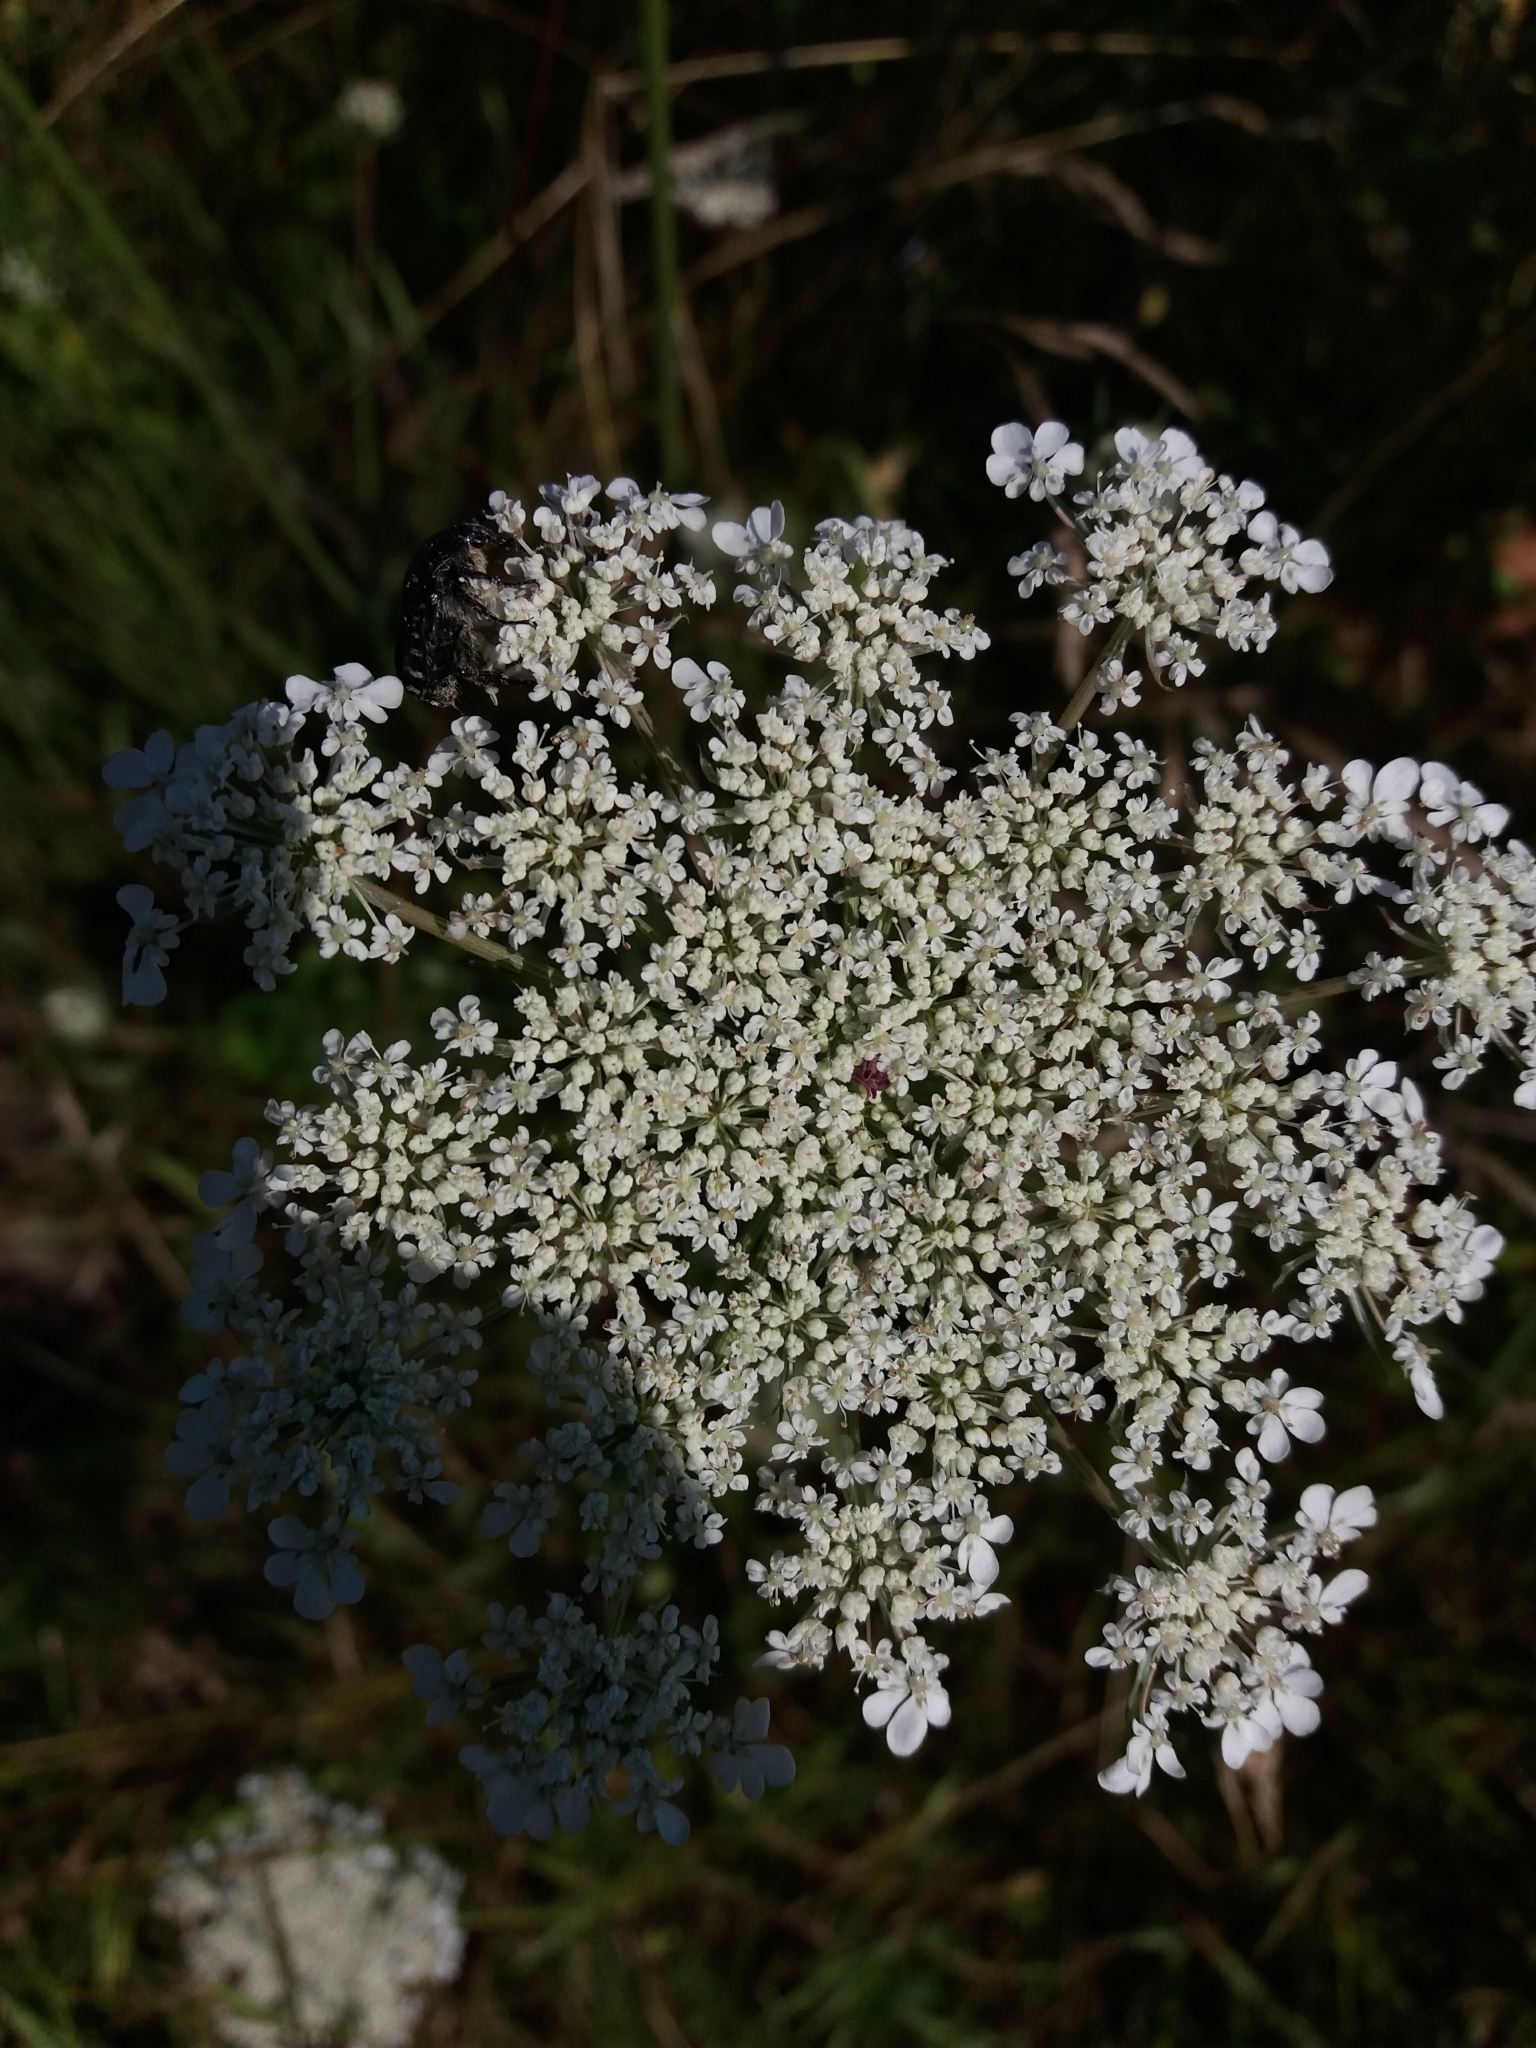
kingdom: Plantae
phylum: Tracheophyta
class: Magnoliopsida
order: Apiales
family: Apiaceae
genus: Daucus
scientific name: Daucus carota
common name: Wild carrot
